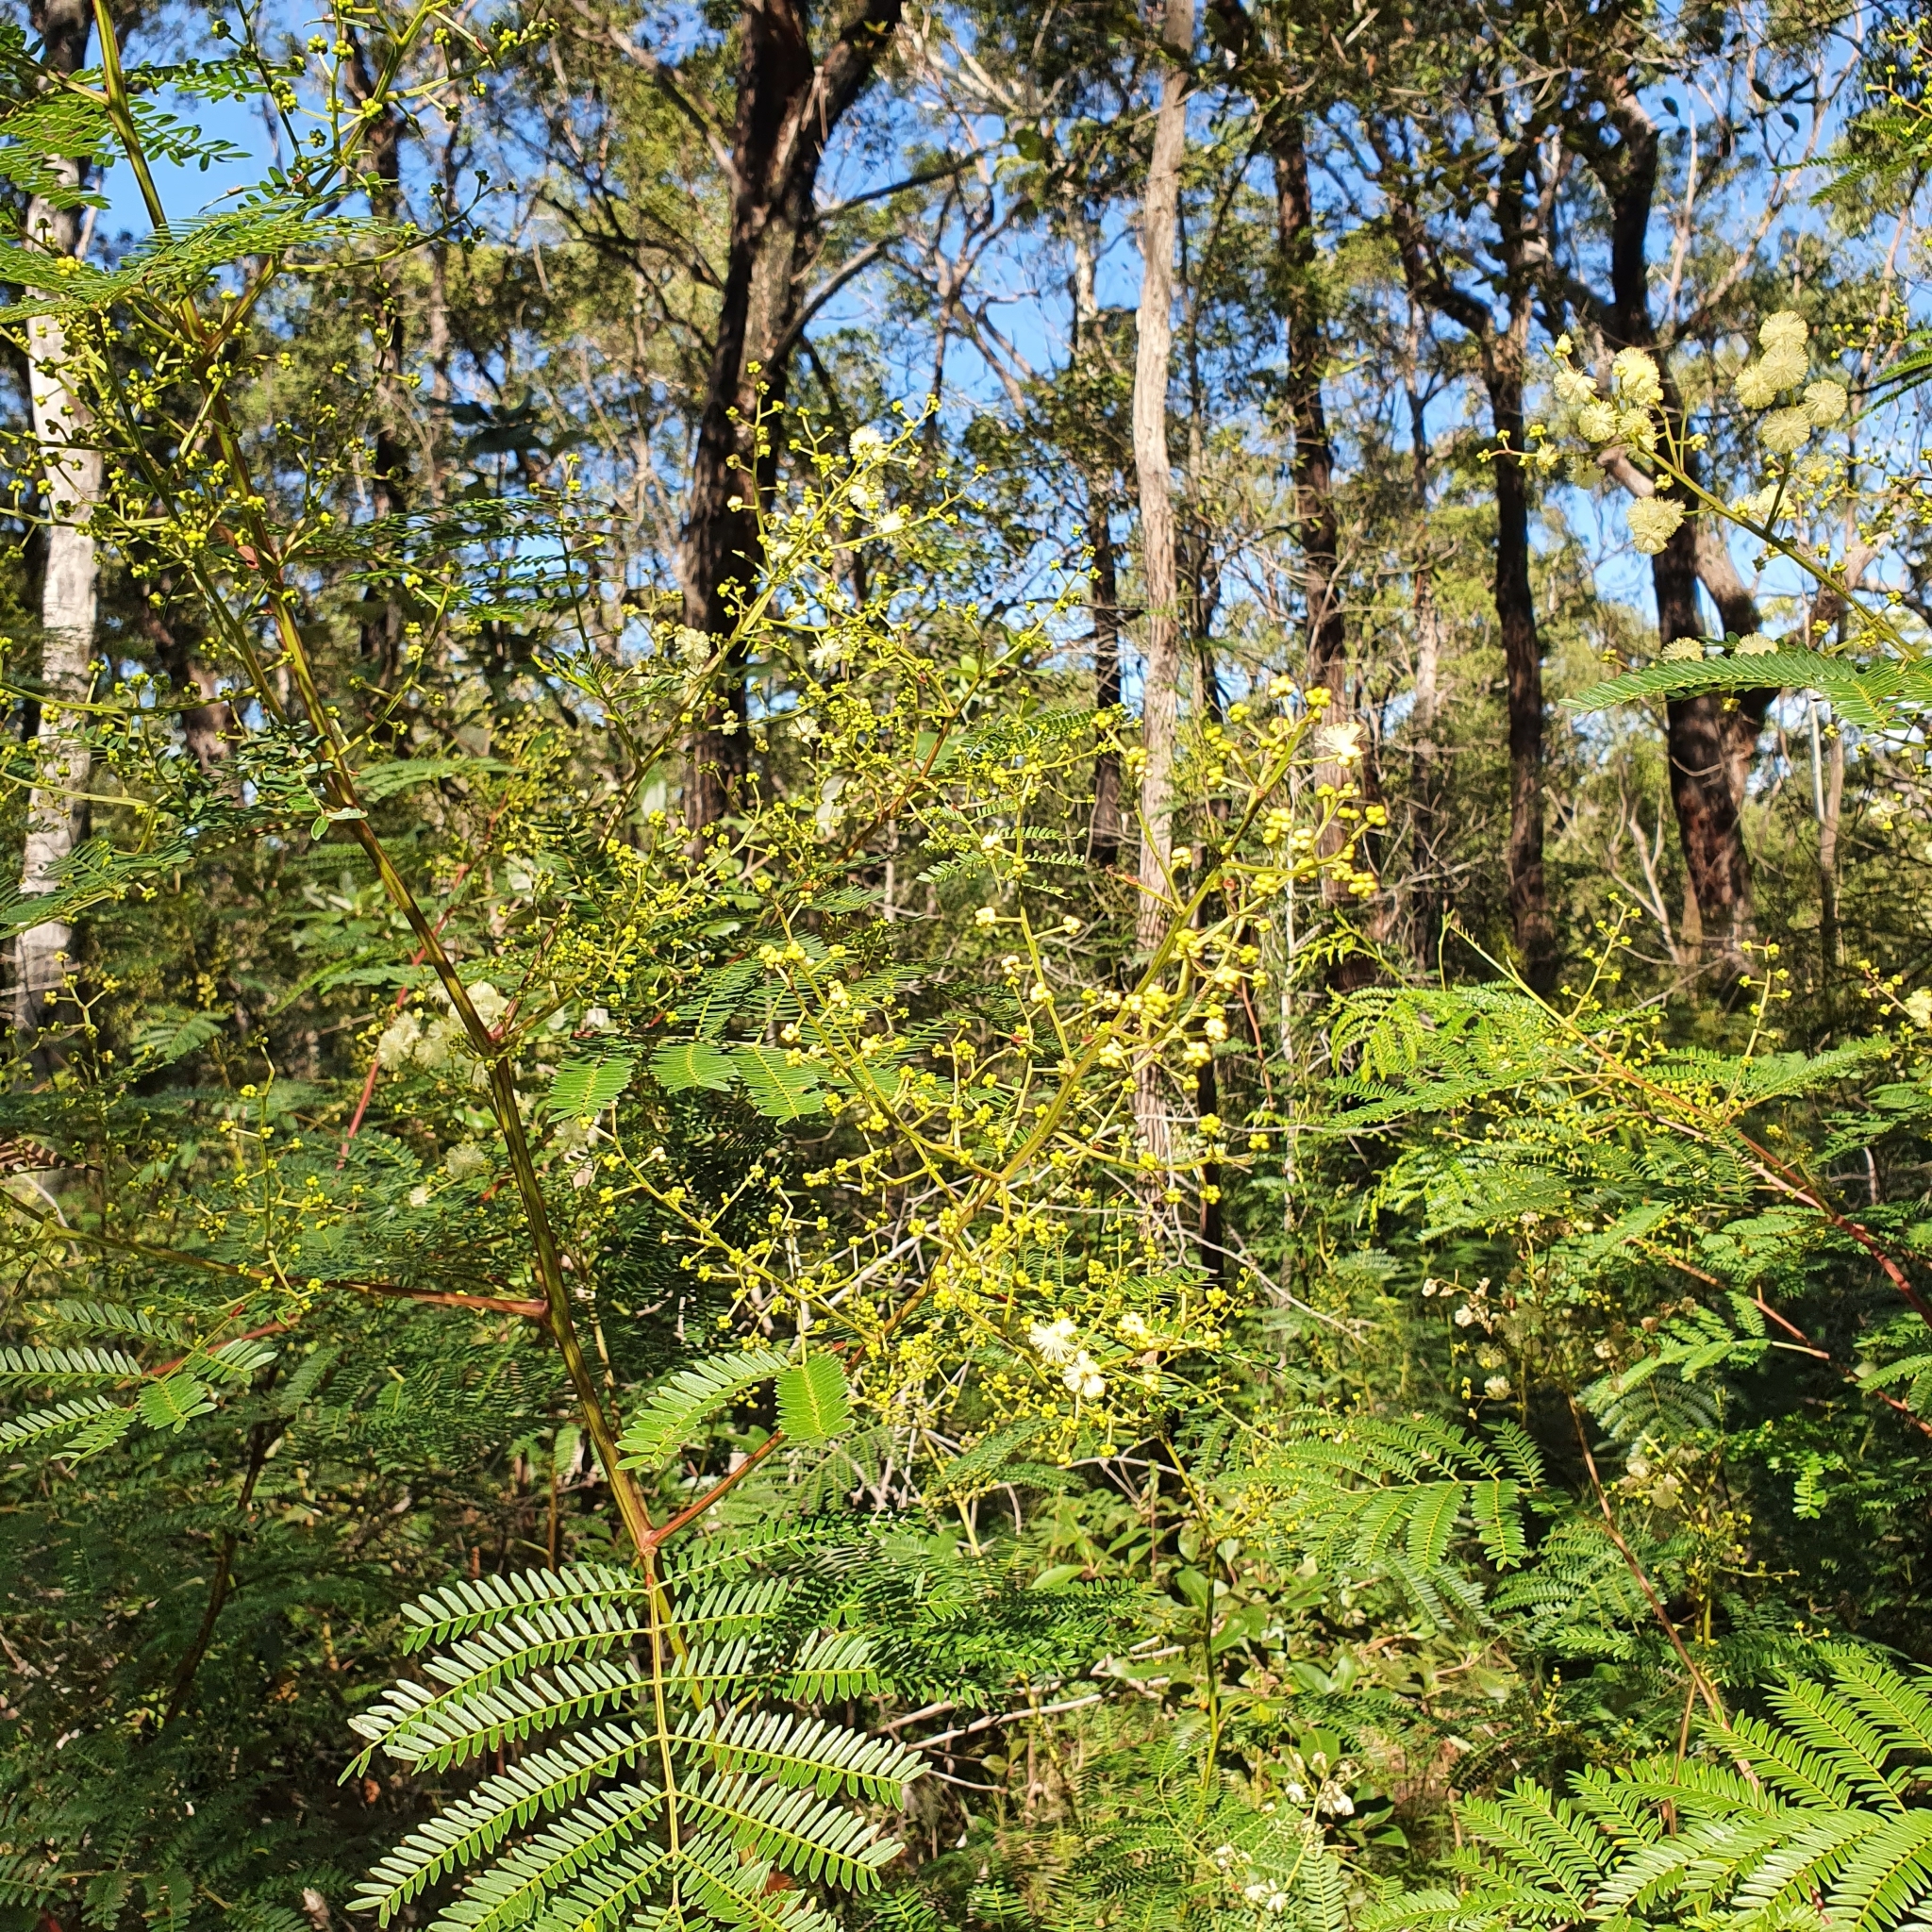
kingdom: Plantae
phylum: Tracheophyta
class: Magnoliopsida
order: Fabales
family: Fabaceae
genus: Acacia
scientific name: Acacia terminalis
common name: Cedar wattle
